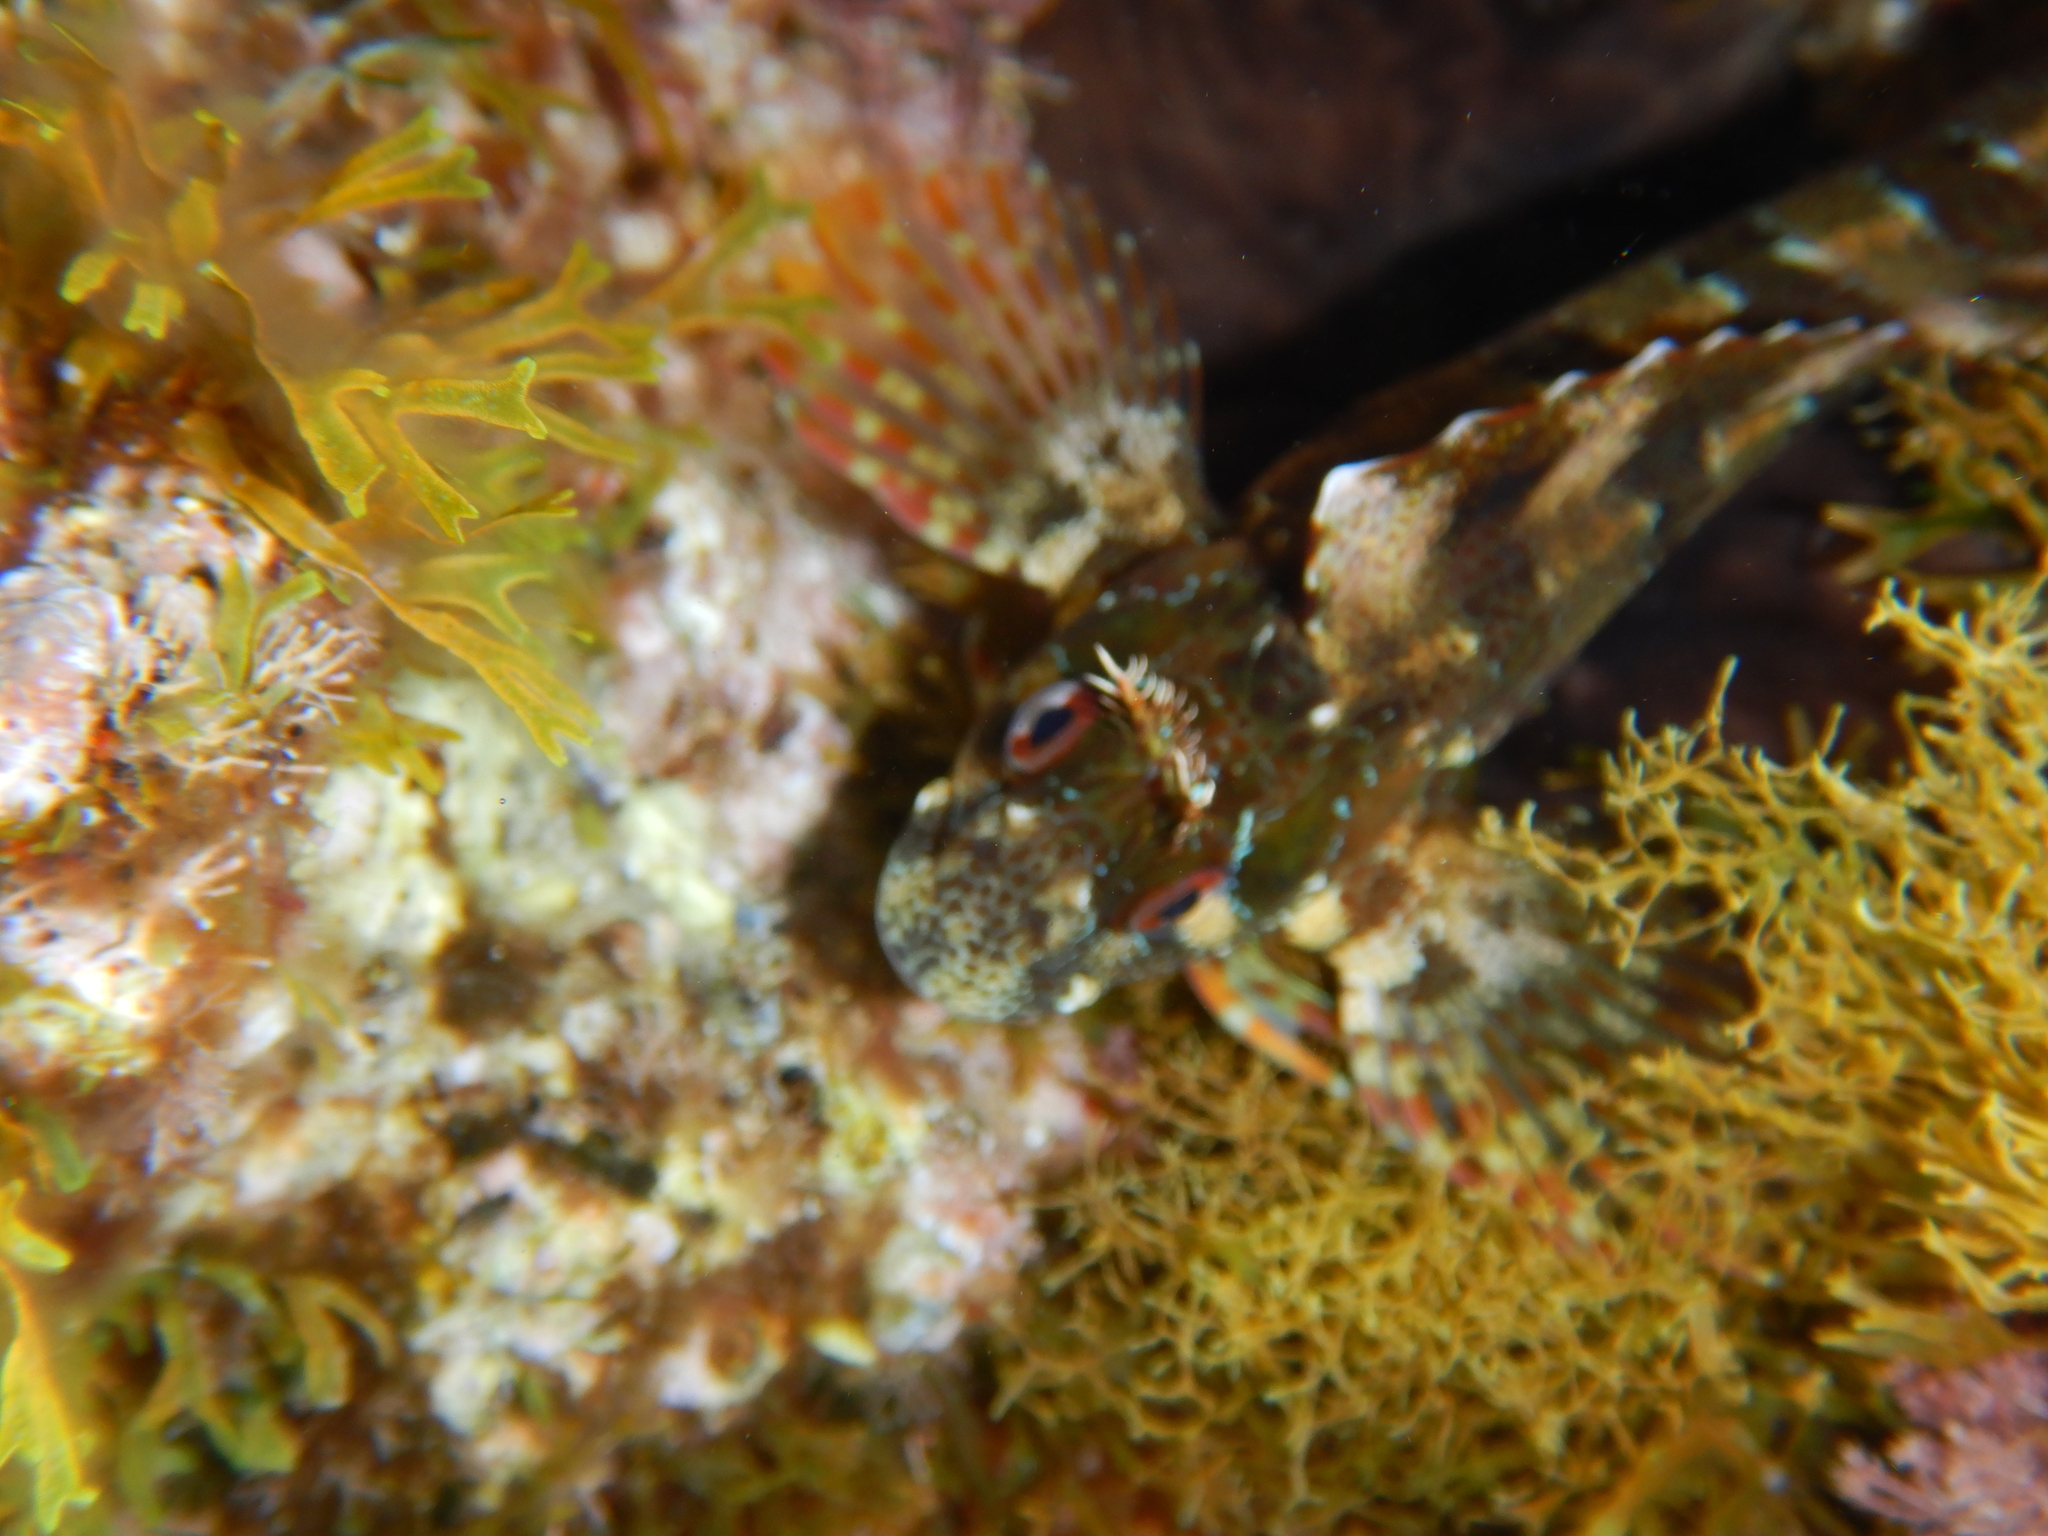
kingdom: Animalia
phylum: Chordata
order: Perciformes
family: Blenniidae
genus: Parablennius
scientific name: Parablennius gattorugine
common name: Tompot blenny
